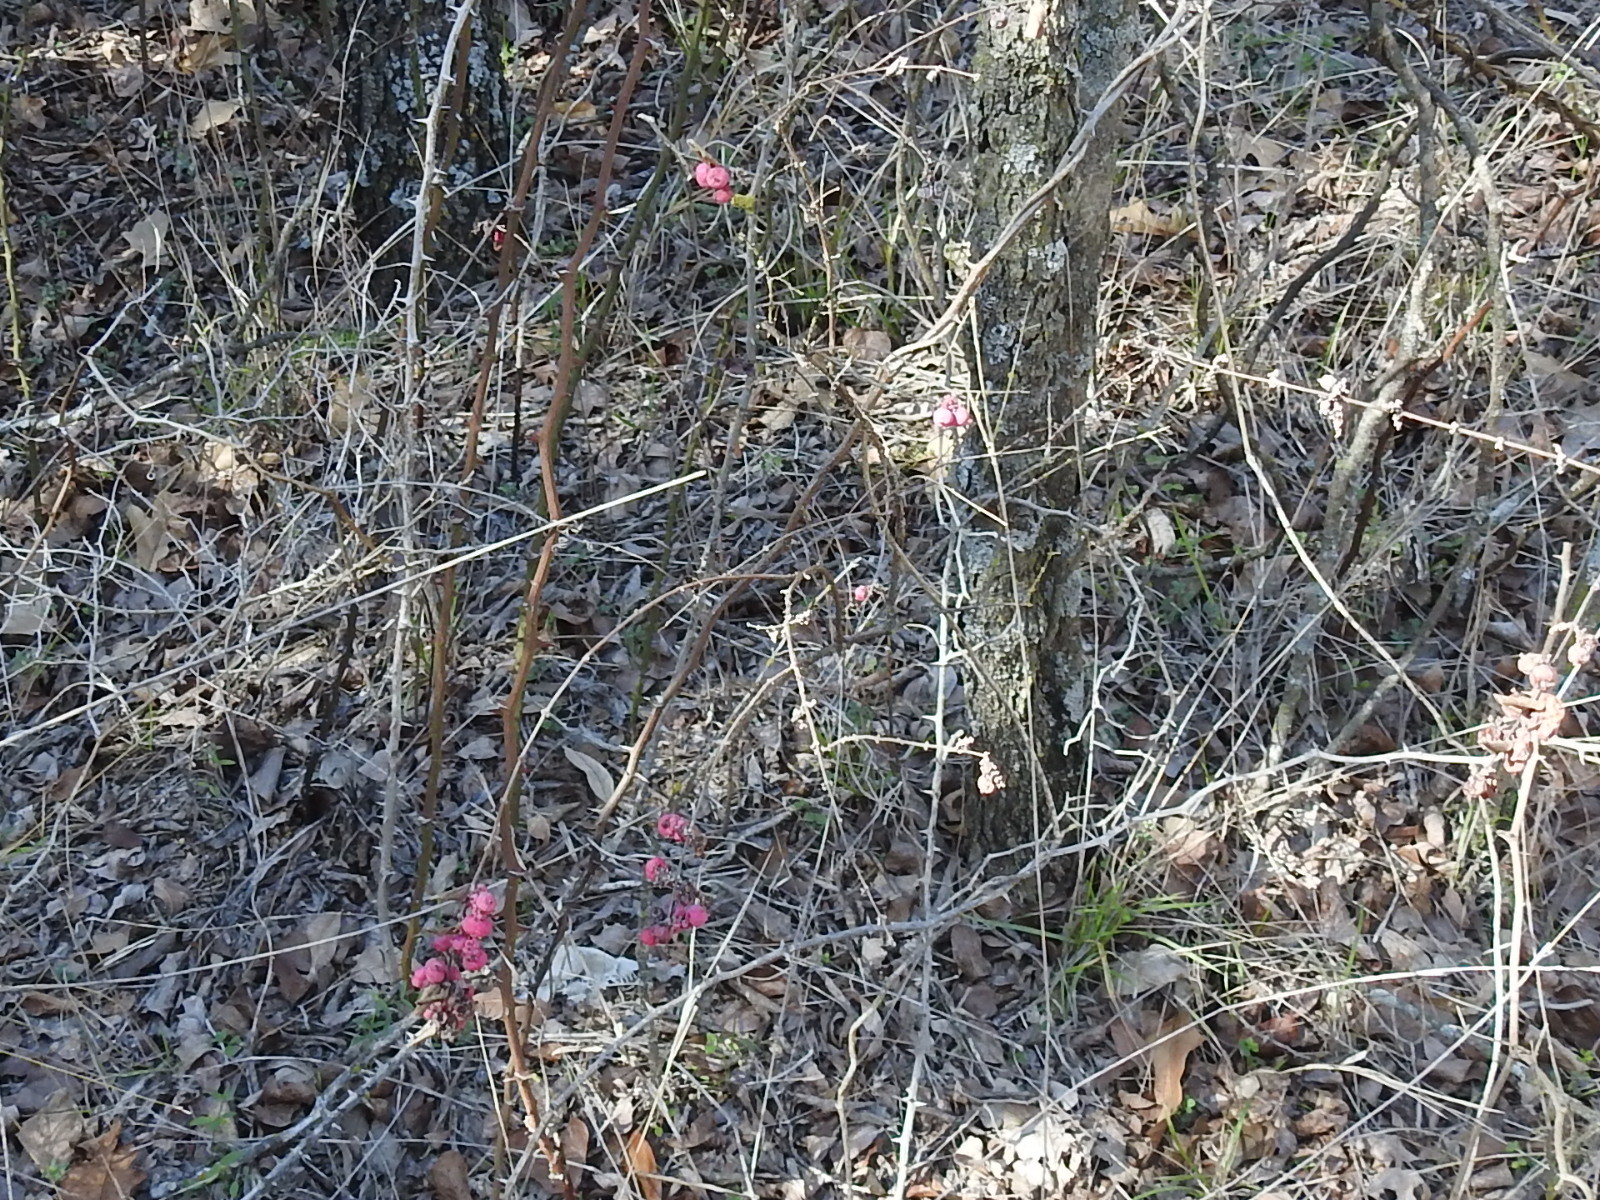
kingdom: Plantae
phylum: Tracheophyta
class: Magnoliopsida
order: Dipsacales
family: Caprifoliaceae
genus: Symphoricarpos
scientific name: Symphoricarpos orbiculatus
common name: Coralberry
